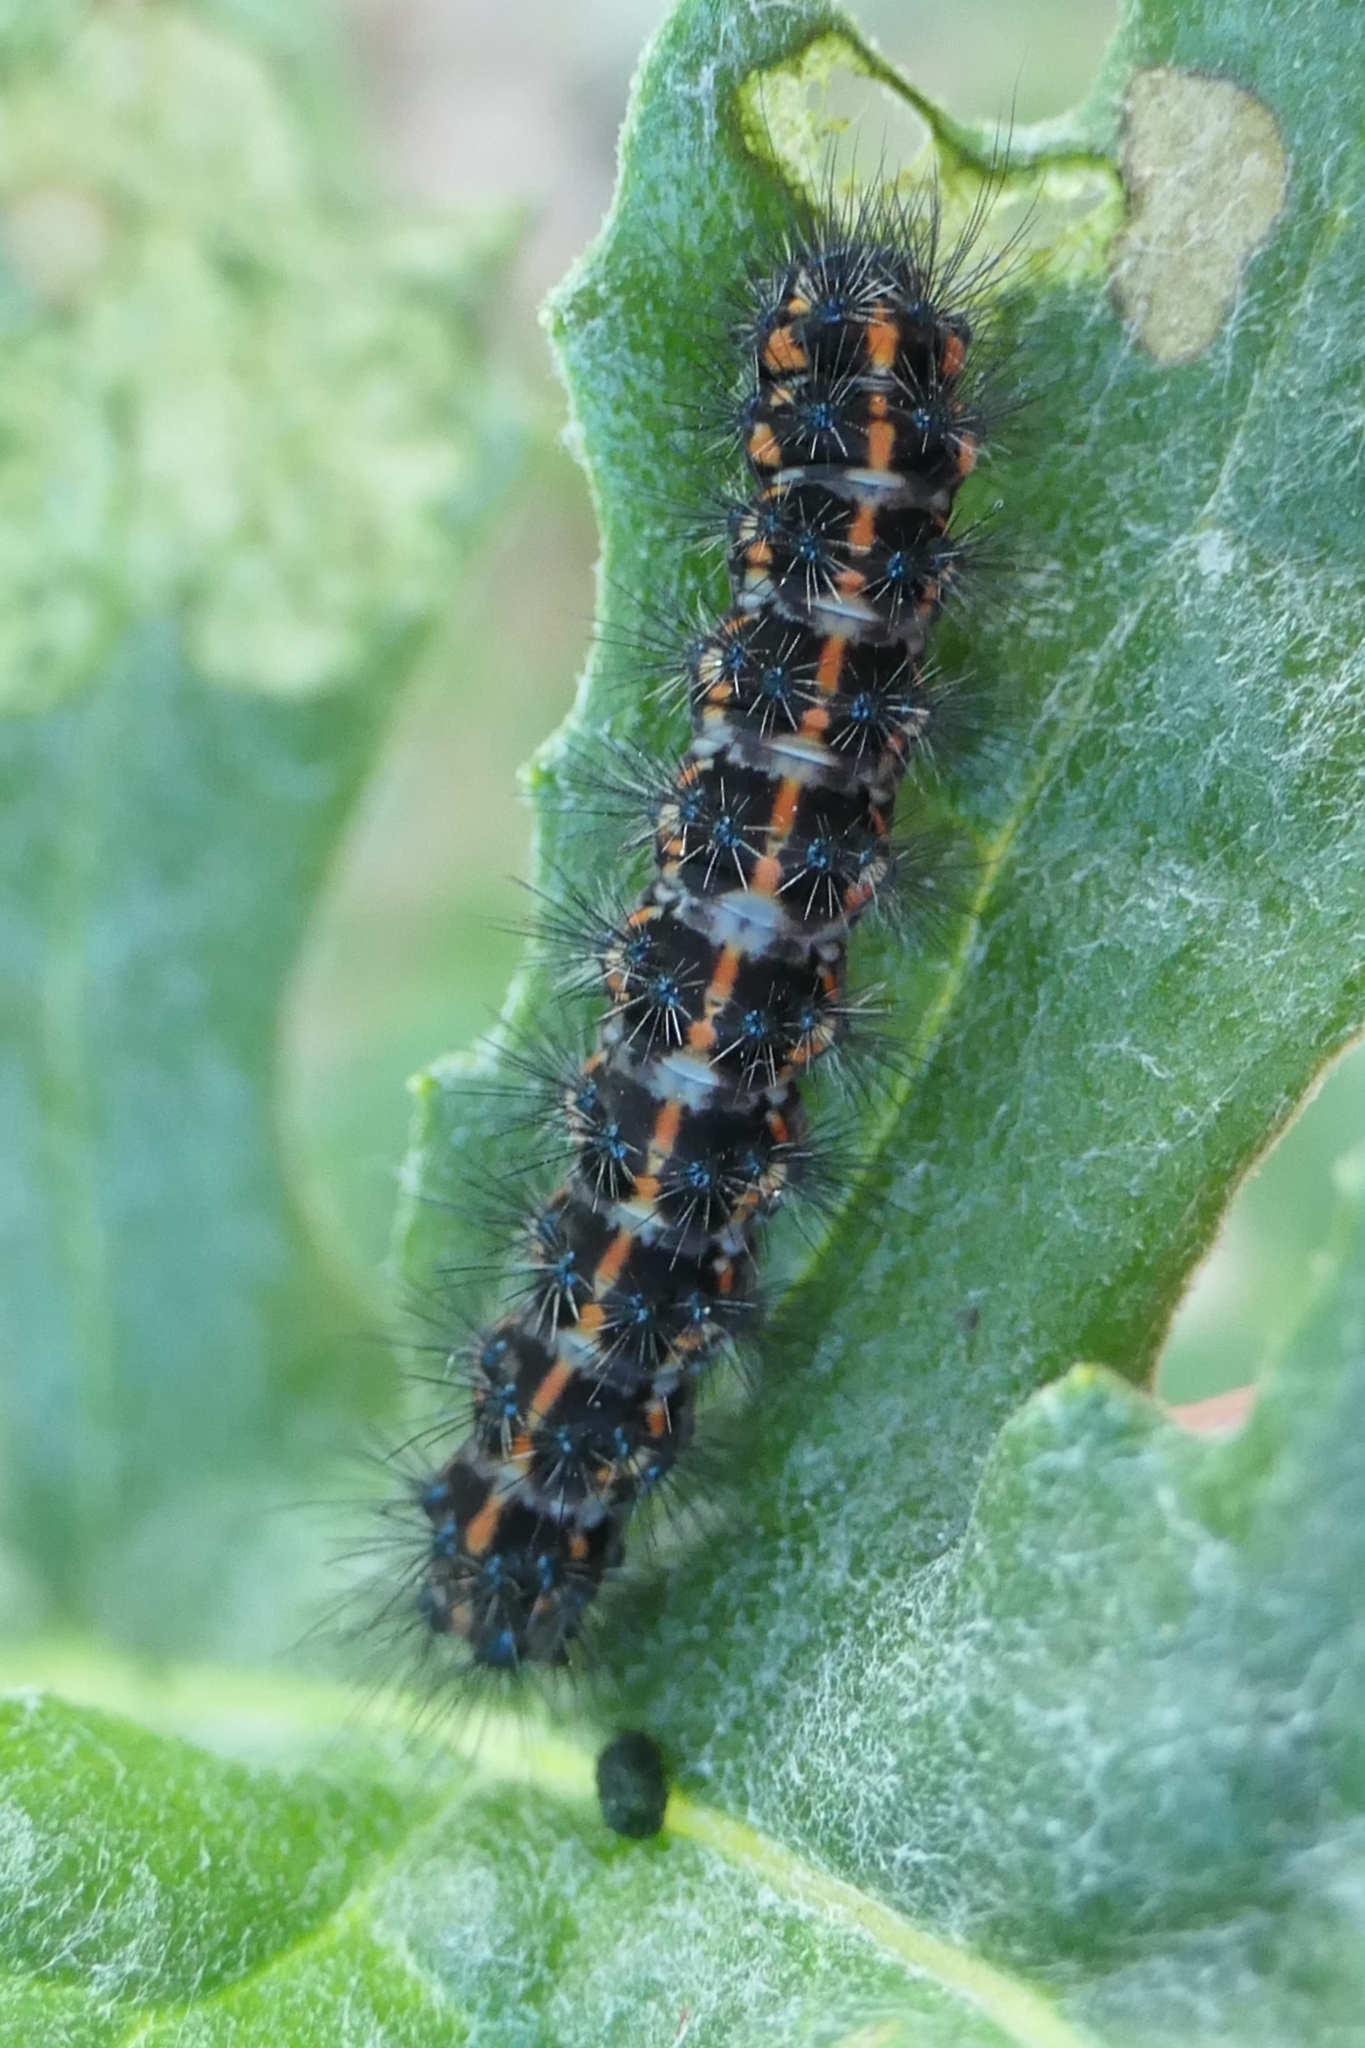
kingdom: Animalia
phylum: Arthropoda
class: Insecta
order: Lepidoptera
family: Erebidae
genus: Nyctemera
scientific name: Nyctemera annulatum
